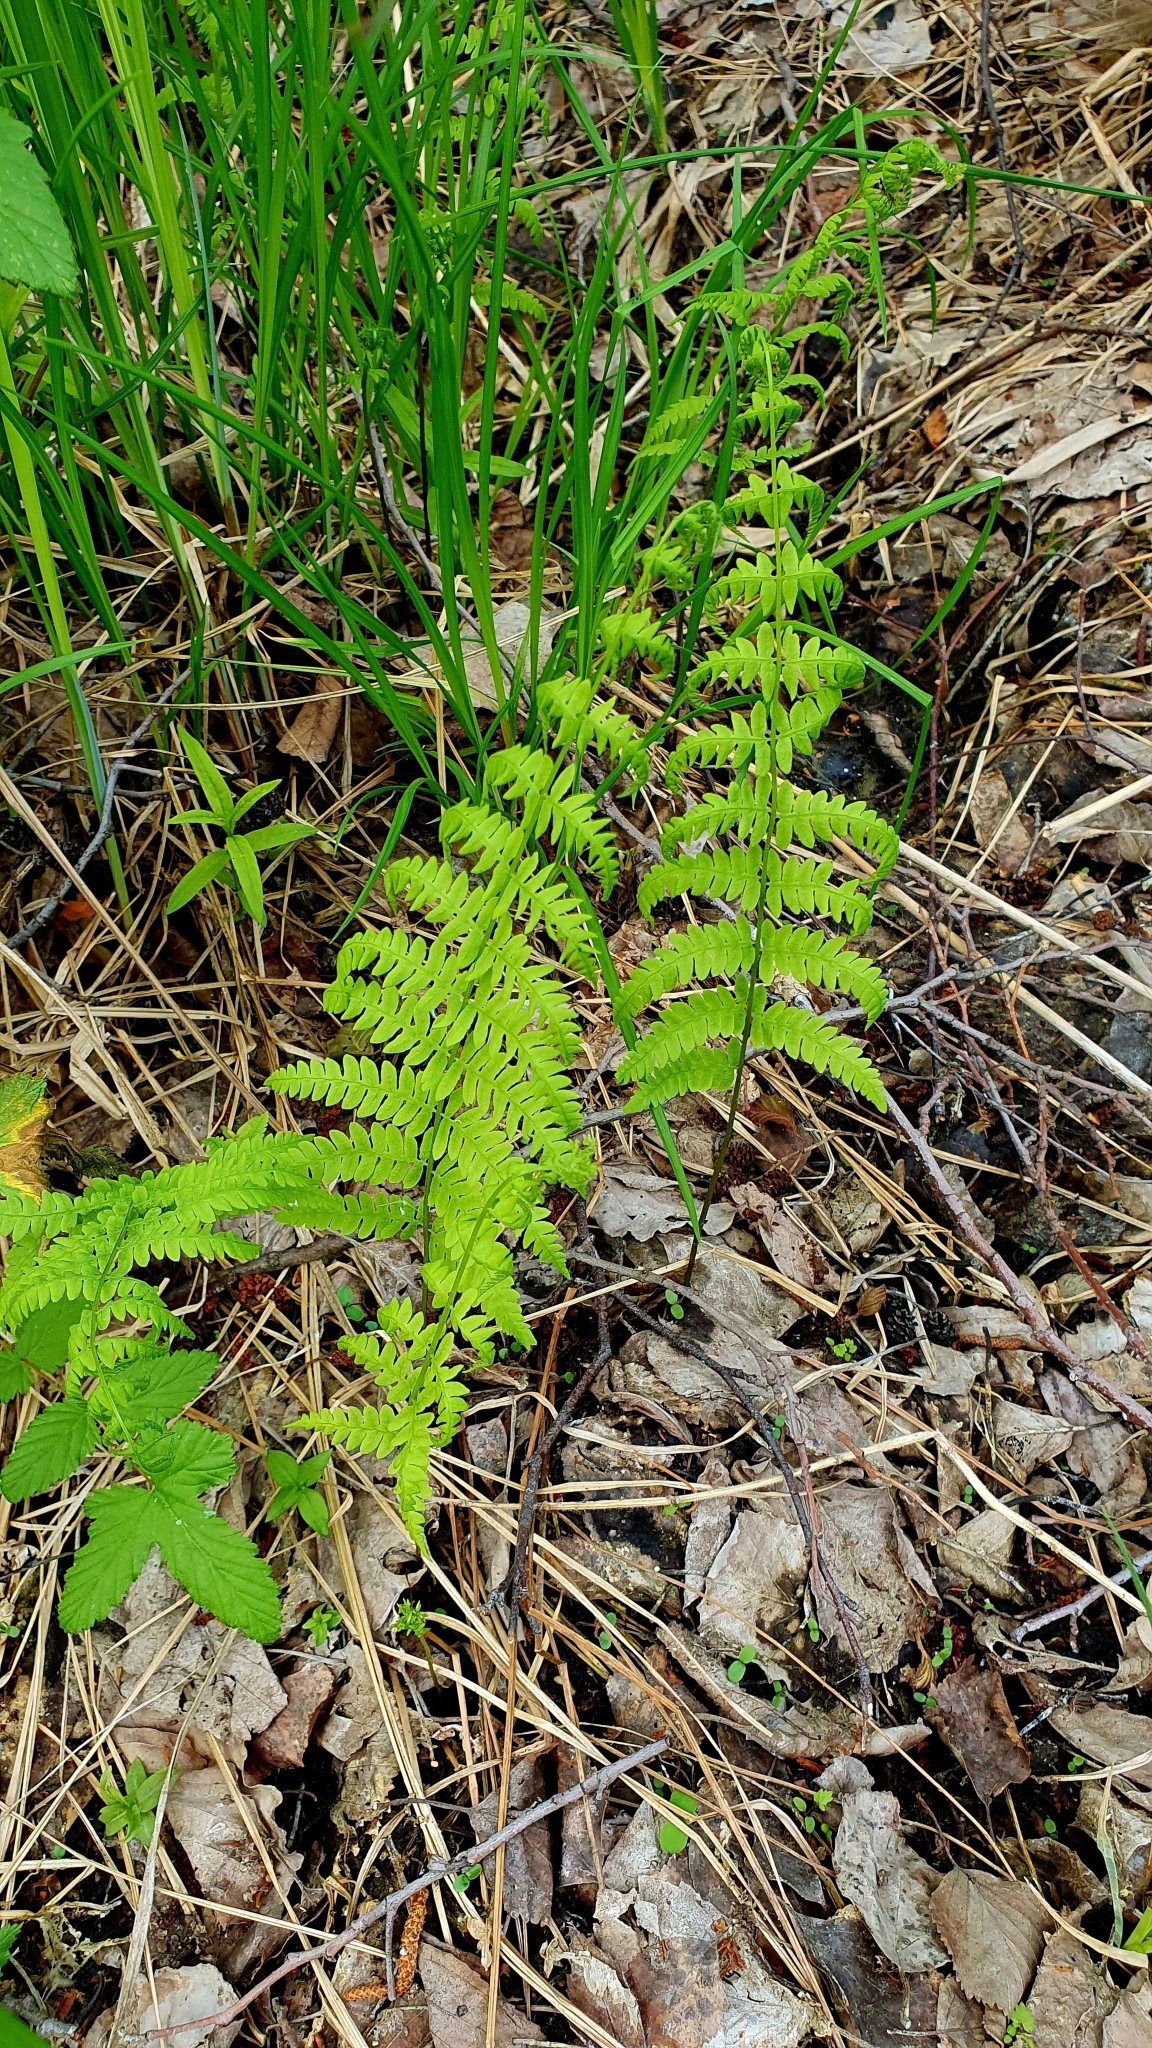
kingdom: Plantae
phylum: Tracheophyta
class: Polypodiopsida
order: Polypodiales
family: Thelypteridaceae
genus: Thelypteris
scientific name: Thelypteris palustris
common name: Marsh fern
